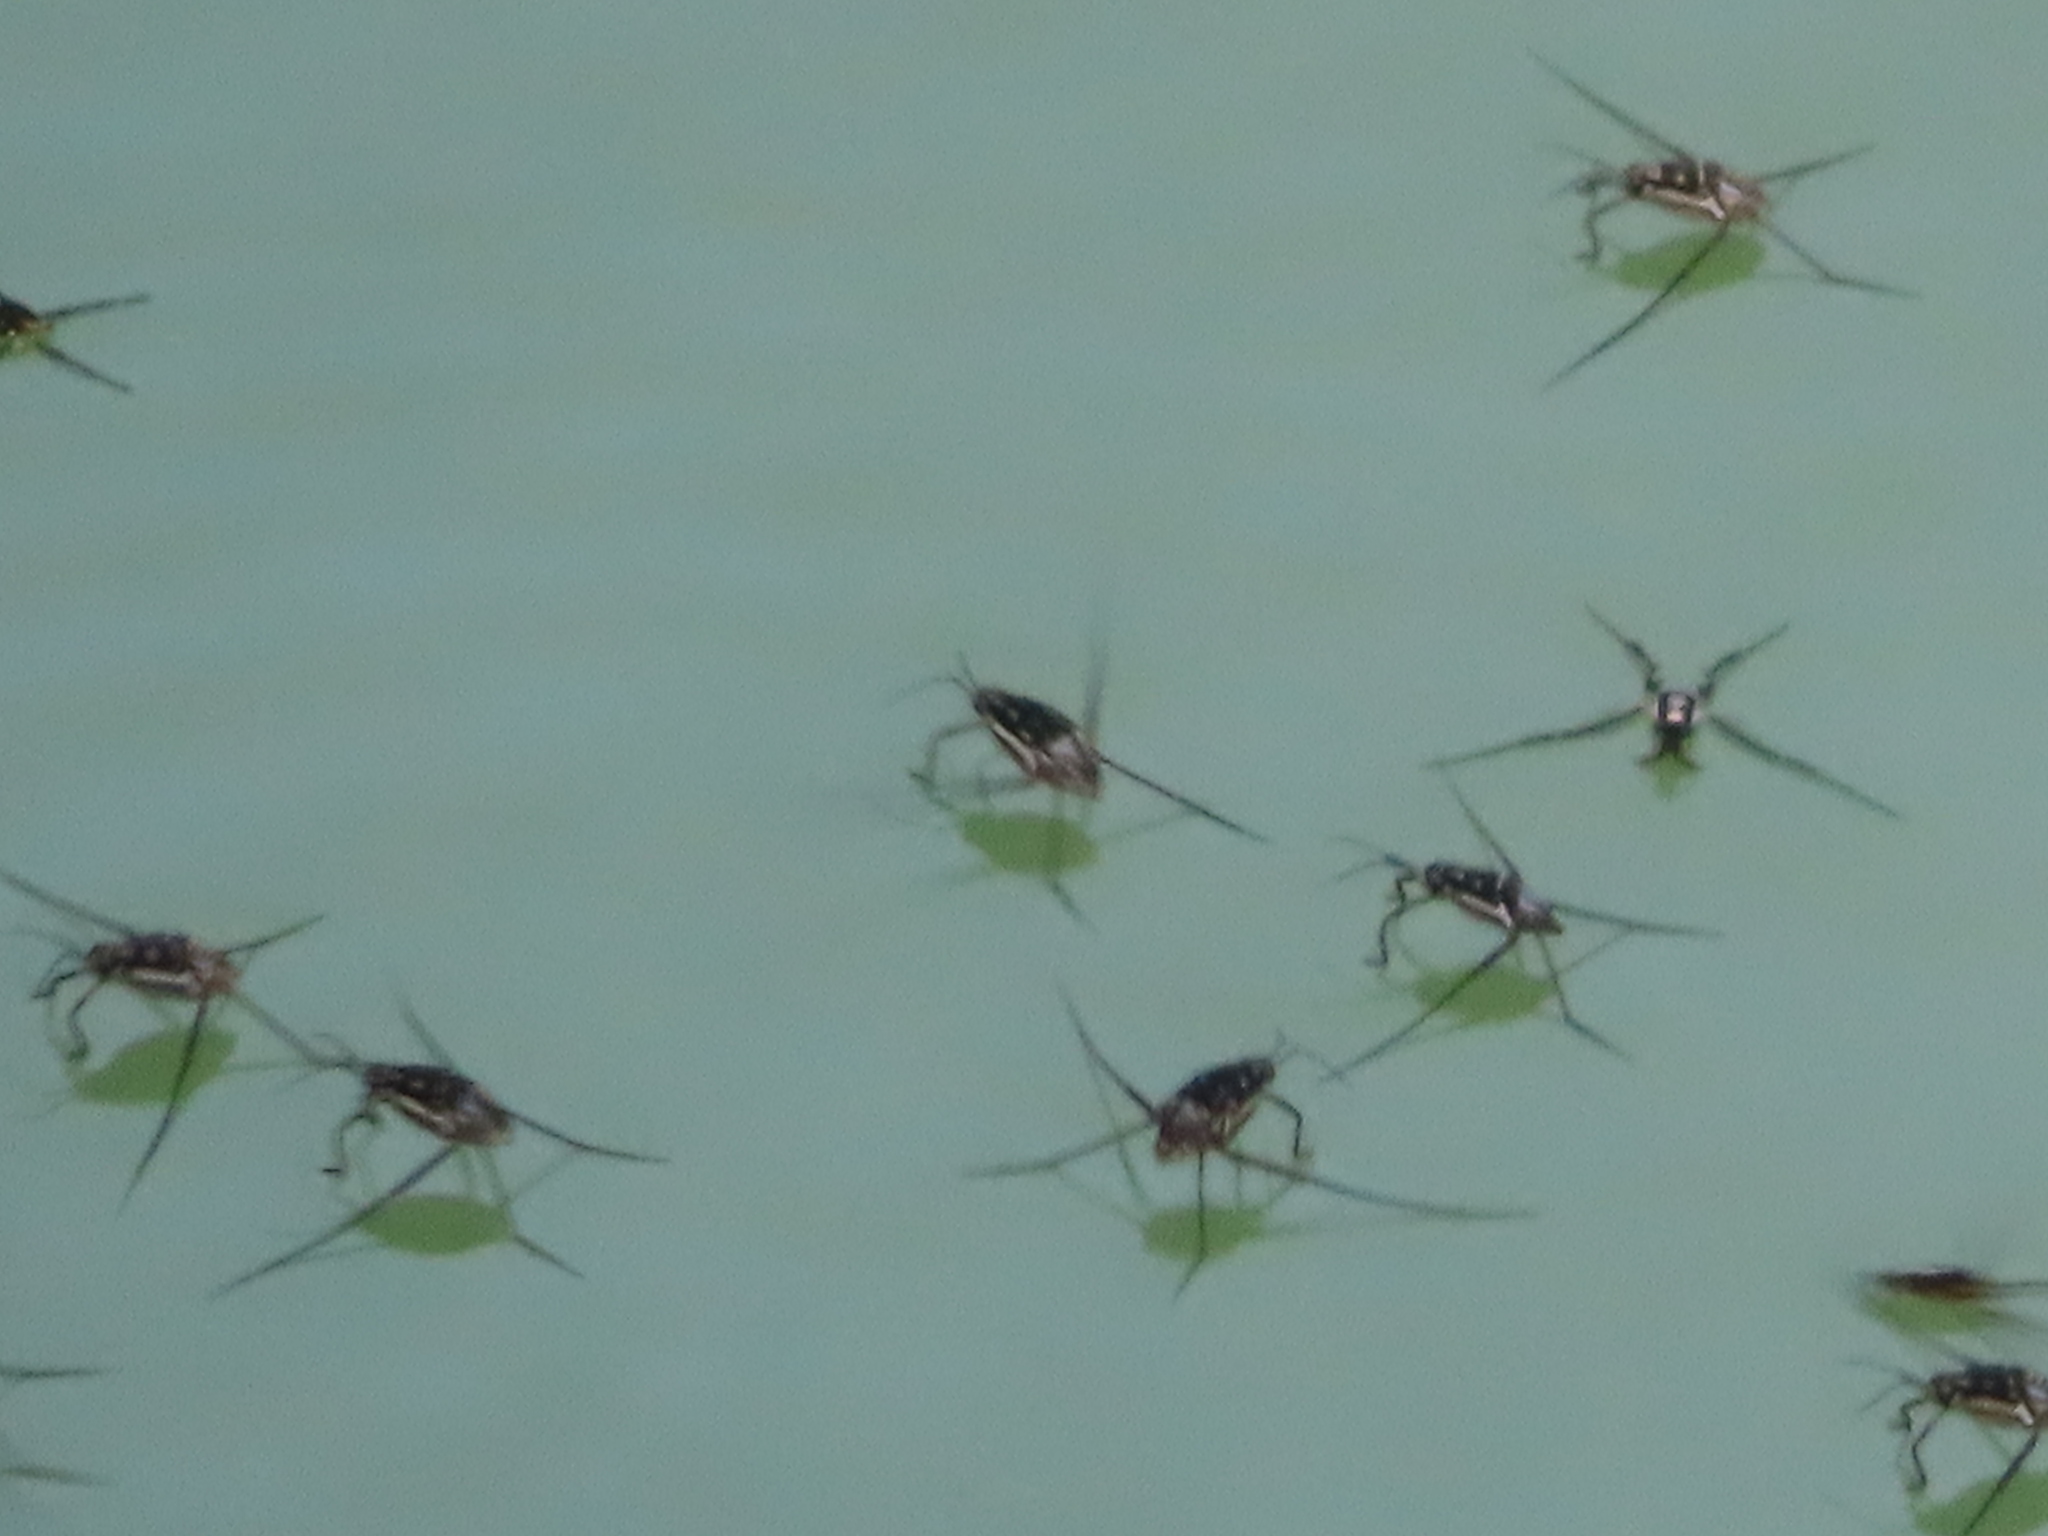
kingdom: Animalia
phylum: Arthropoda
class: Insecta
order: Hemiptera
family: Gerridae
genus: Trepobates
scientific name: Trepobates subnitidus
